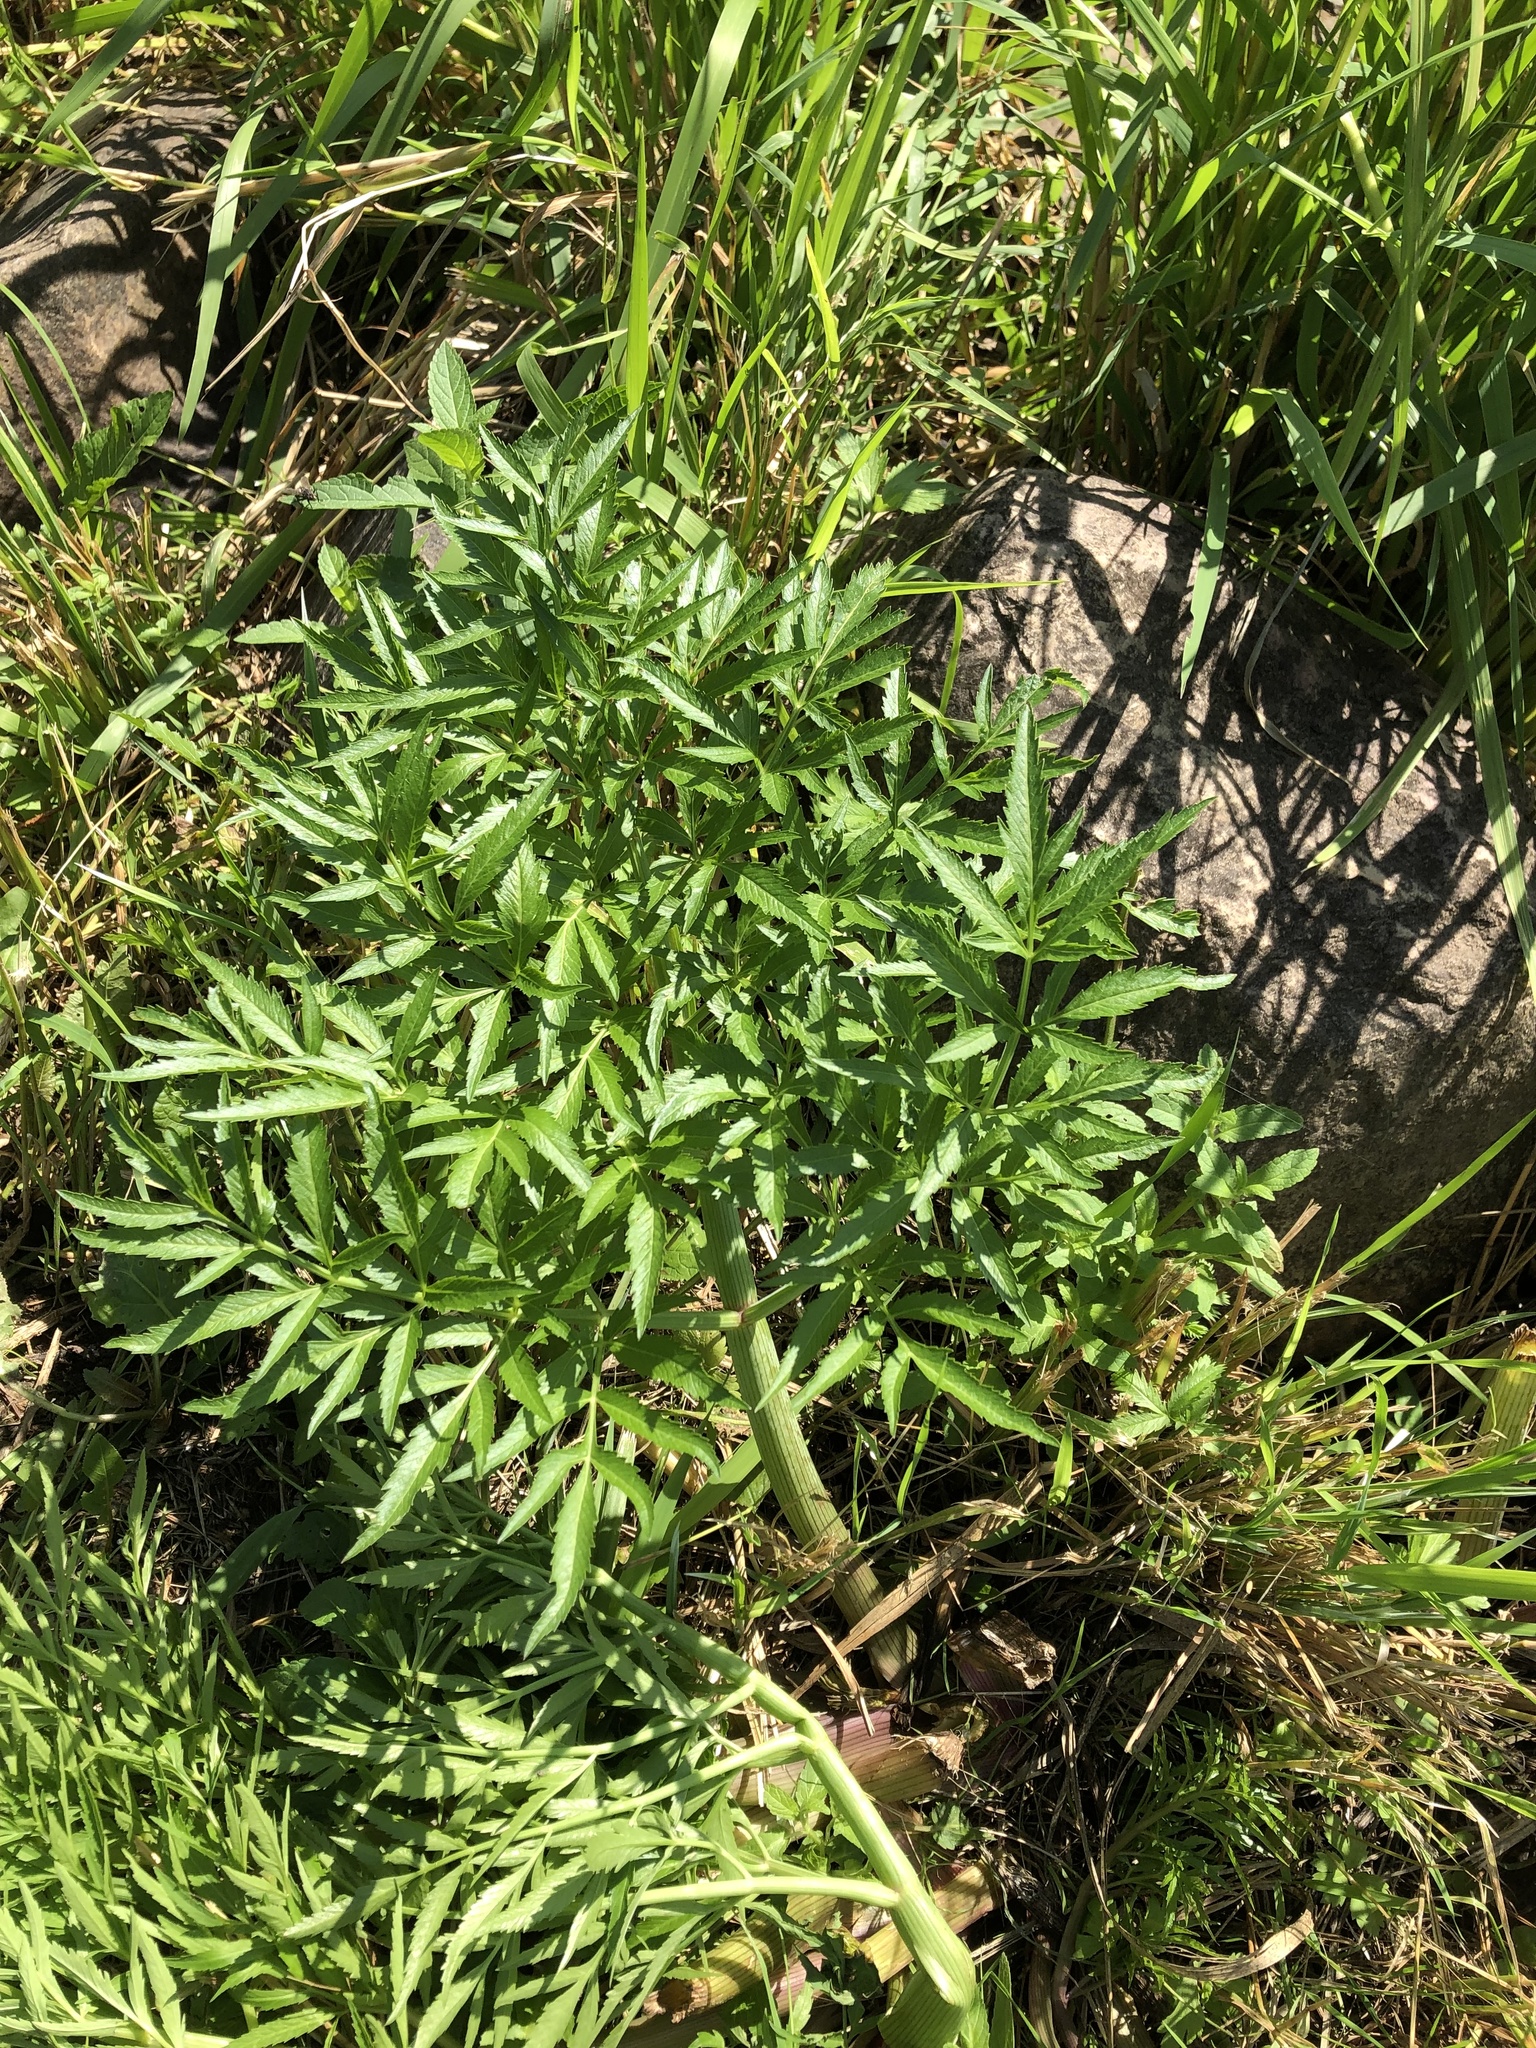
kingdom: Plantae
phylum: Tracheophyta
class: Magnoliopsida
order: Apiales
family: Apiaceae
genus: Cicuta
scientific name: Cicuta virosa
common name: Cowbane
